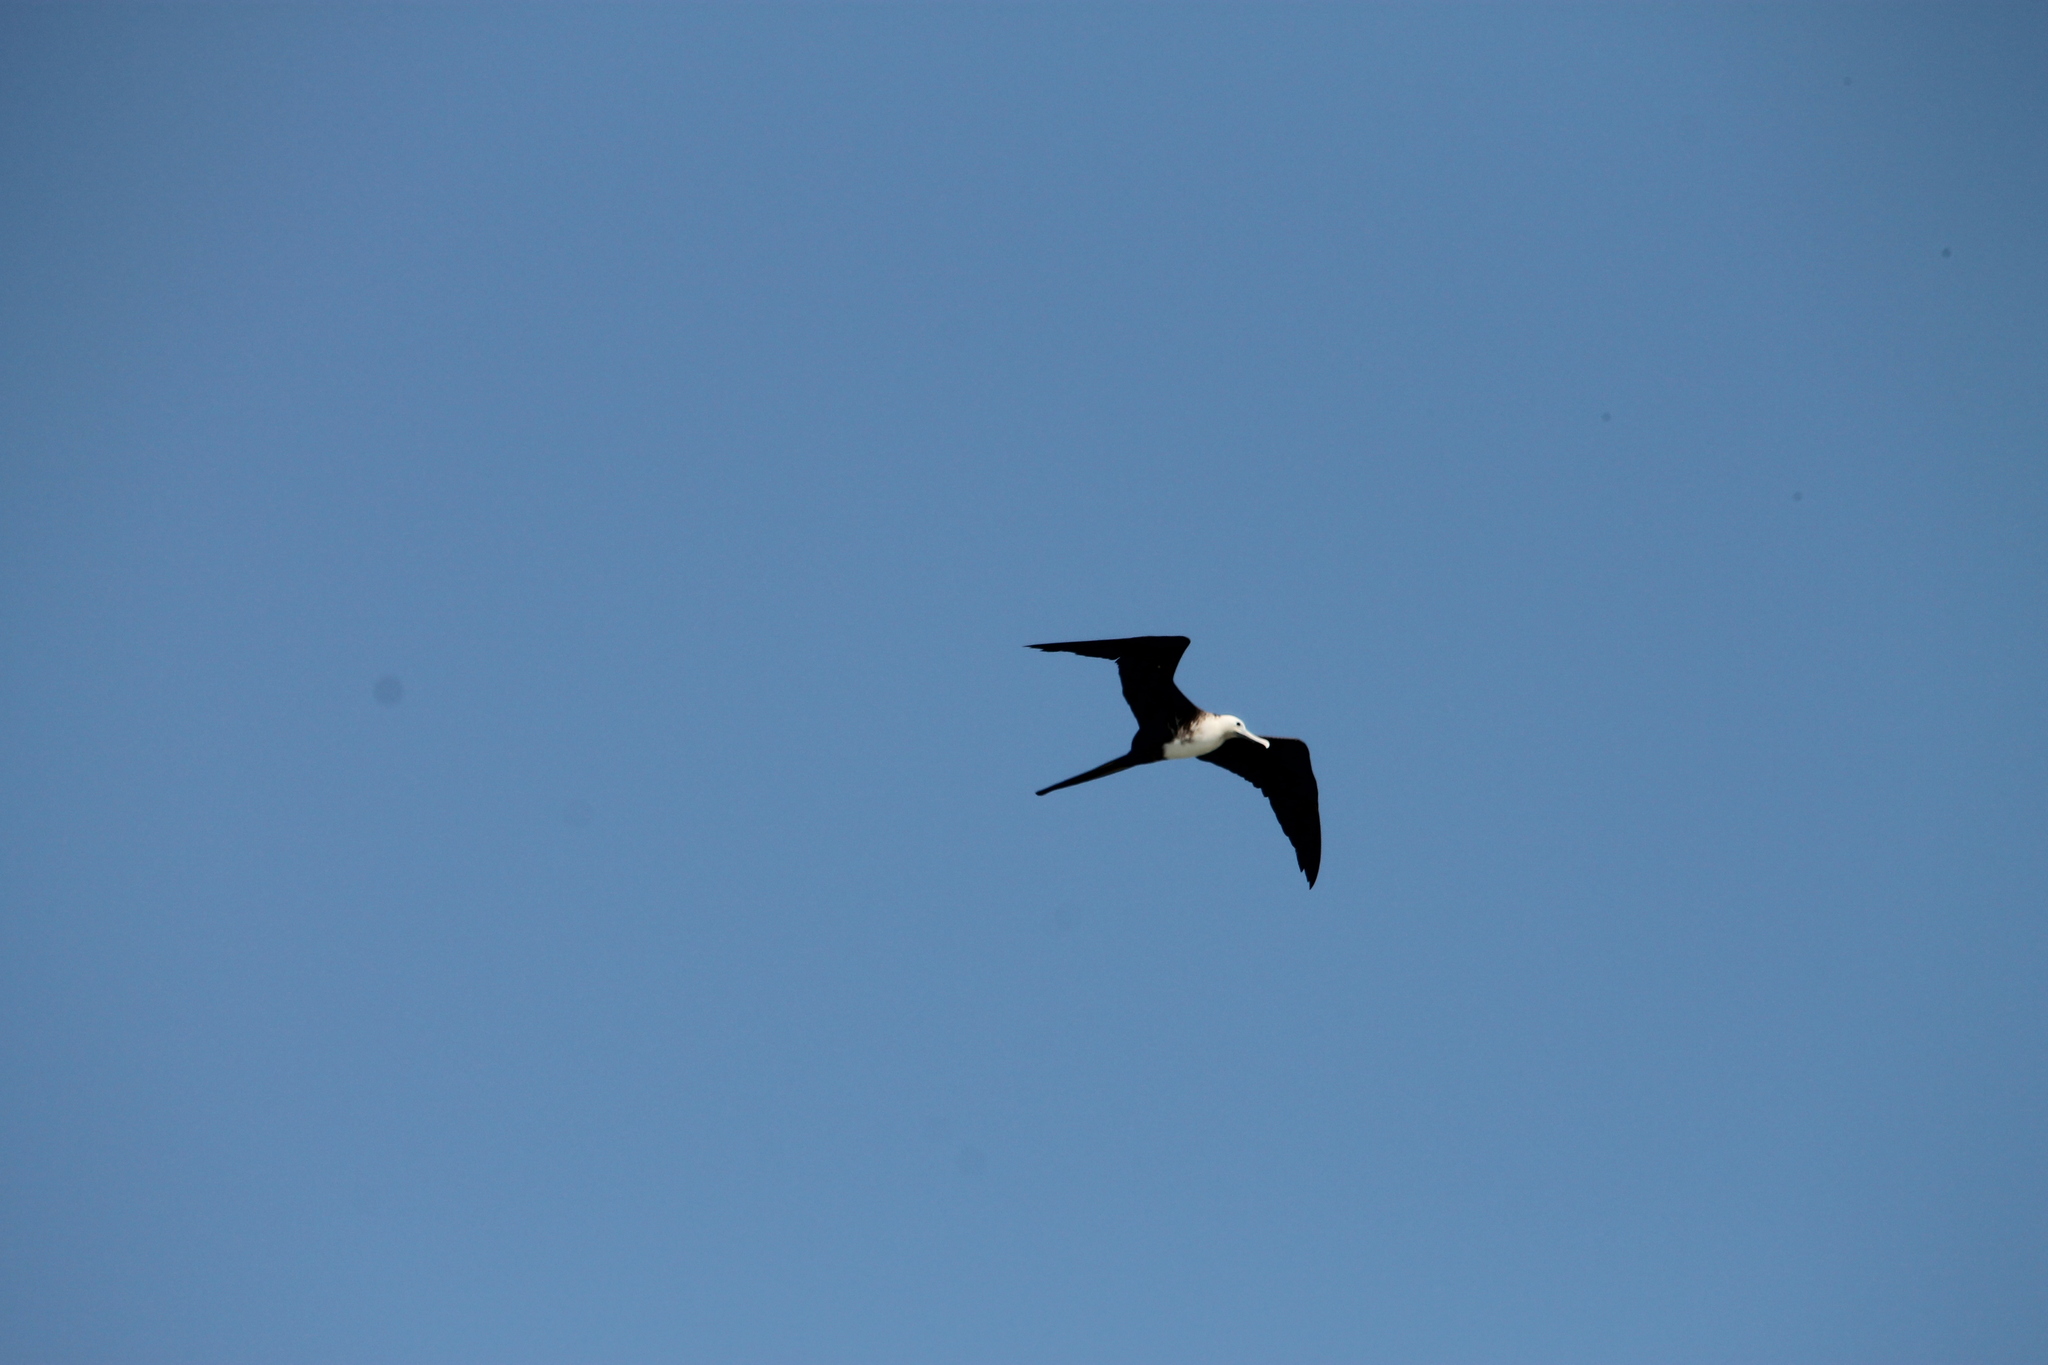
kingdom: Animalia
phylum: Chordata
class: Aves
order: Suliformes
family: Fregatidae
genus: Fregata
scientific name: Fregata magnificens
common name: Magnificent frigatebird
